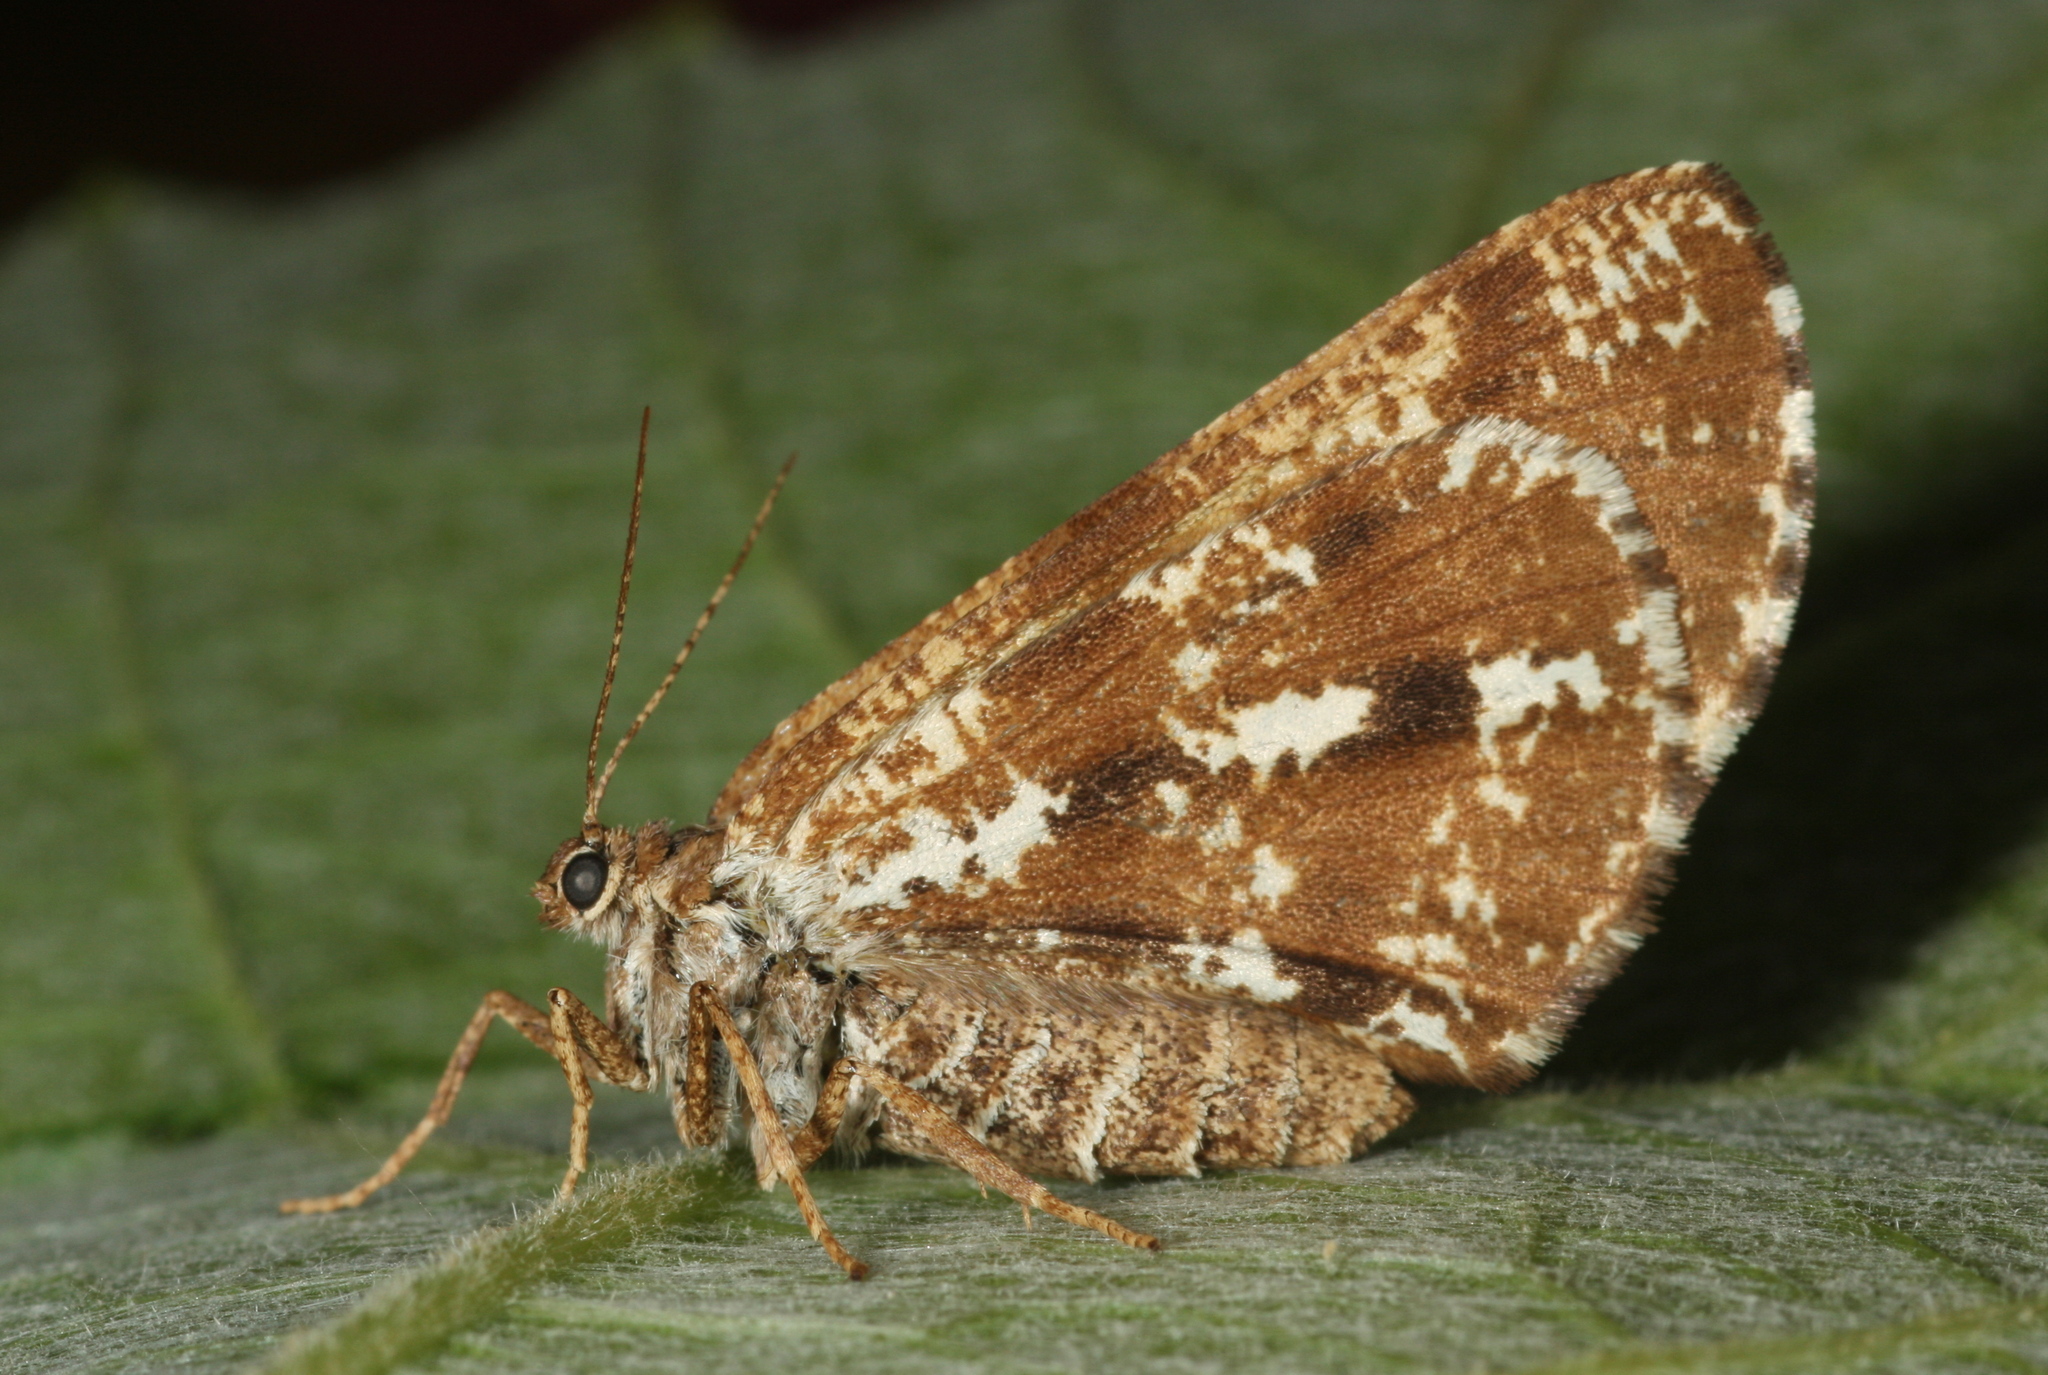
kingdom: Animalia
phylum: Arthropoda
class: Insecta
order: Lepidoptera
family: Geometridae
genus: Bupalus
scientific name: Bupalus piniaria
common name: Bordered white
